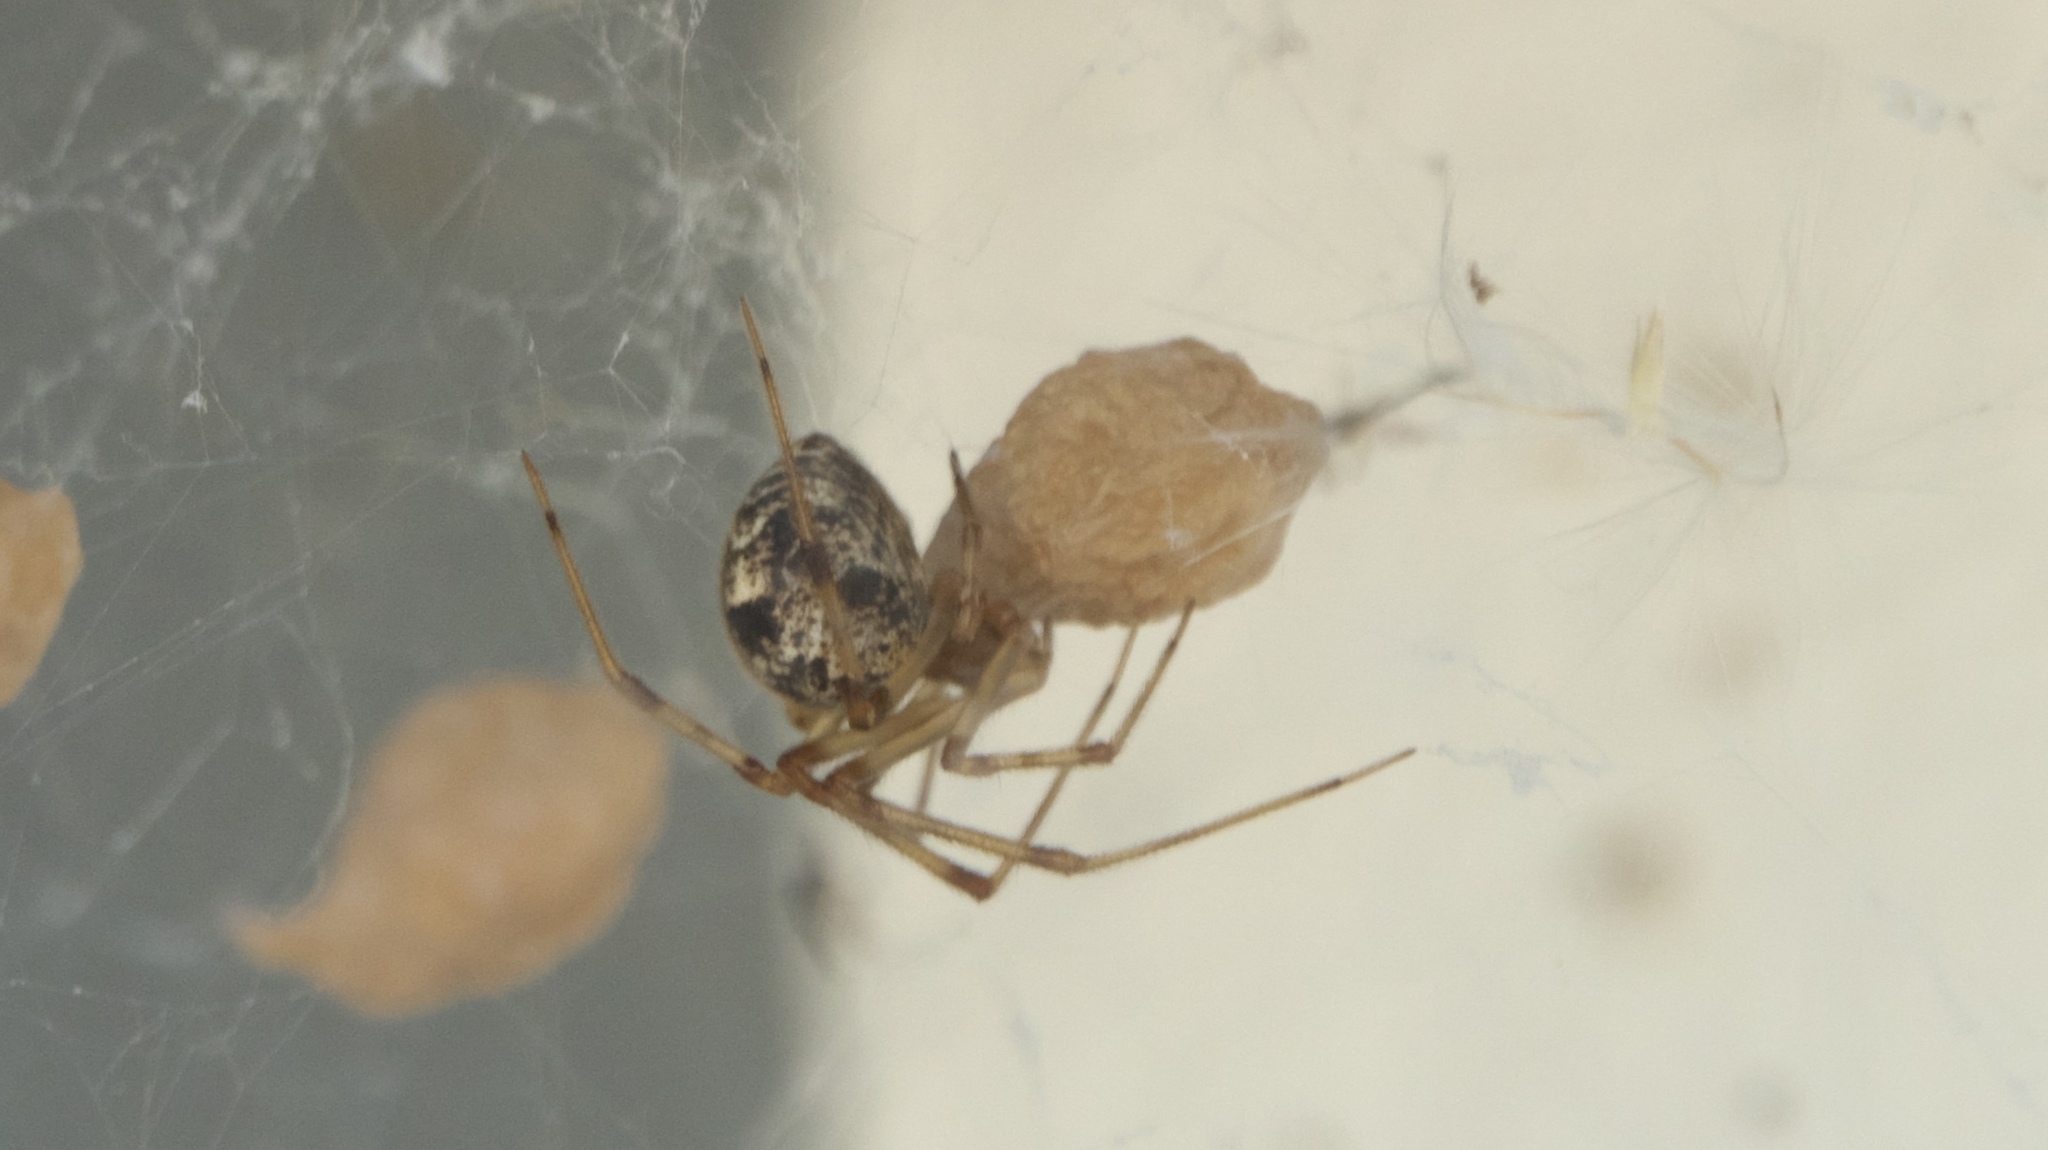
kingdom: Animalia
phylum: Arthropoda
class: Arachnida
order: Araneae
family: Theridiidae
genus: Parasteatoda
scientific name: Parasteatoda tepidariorum
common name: Common house spider
